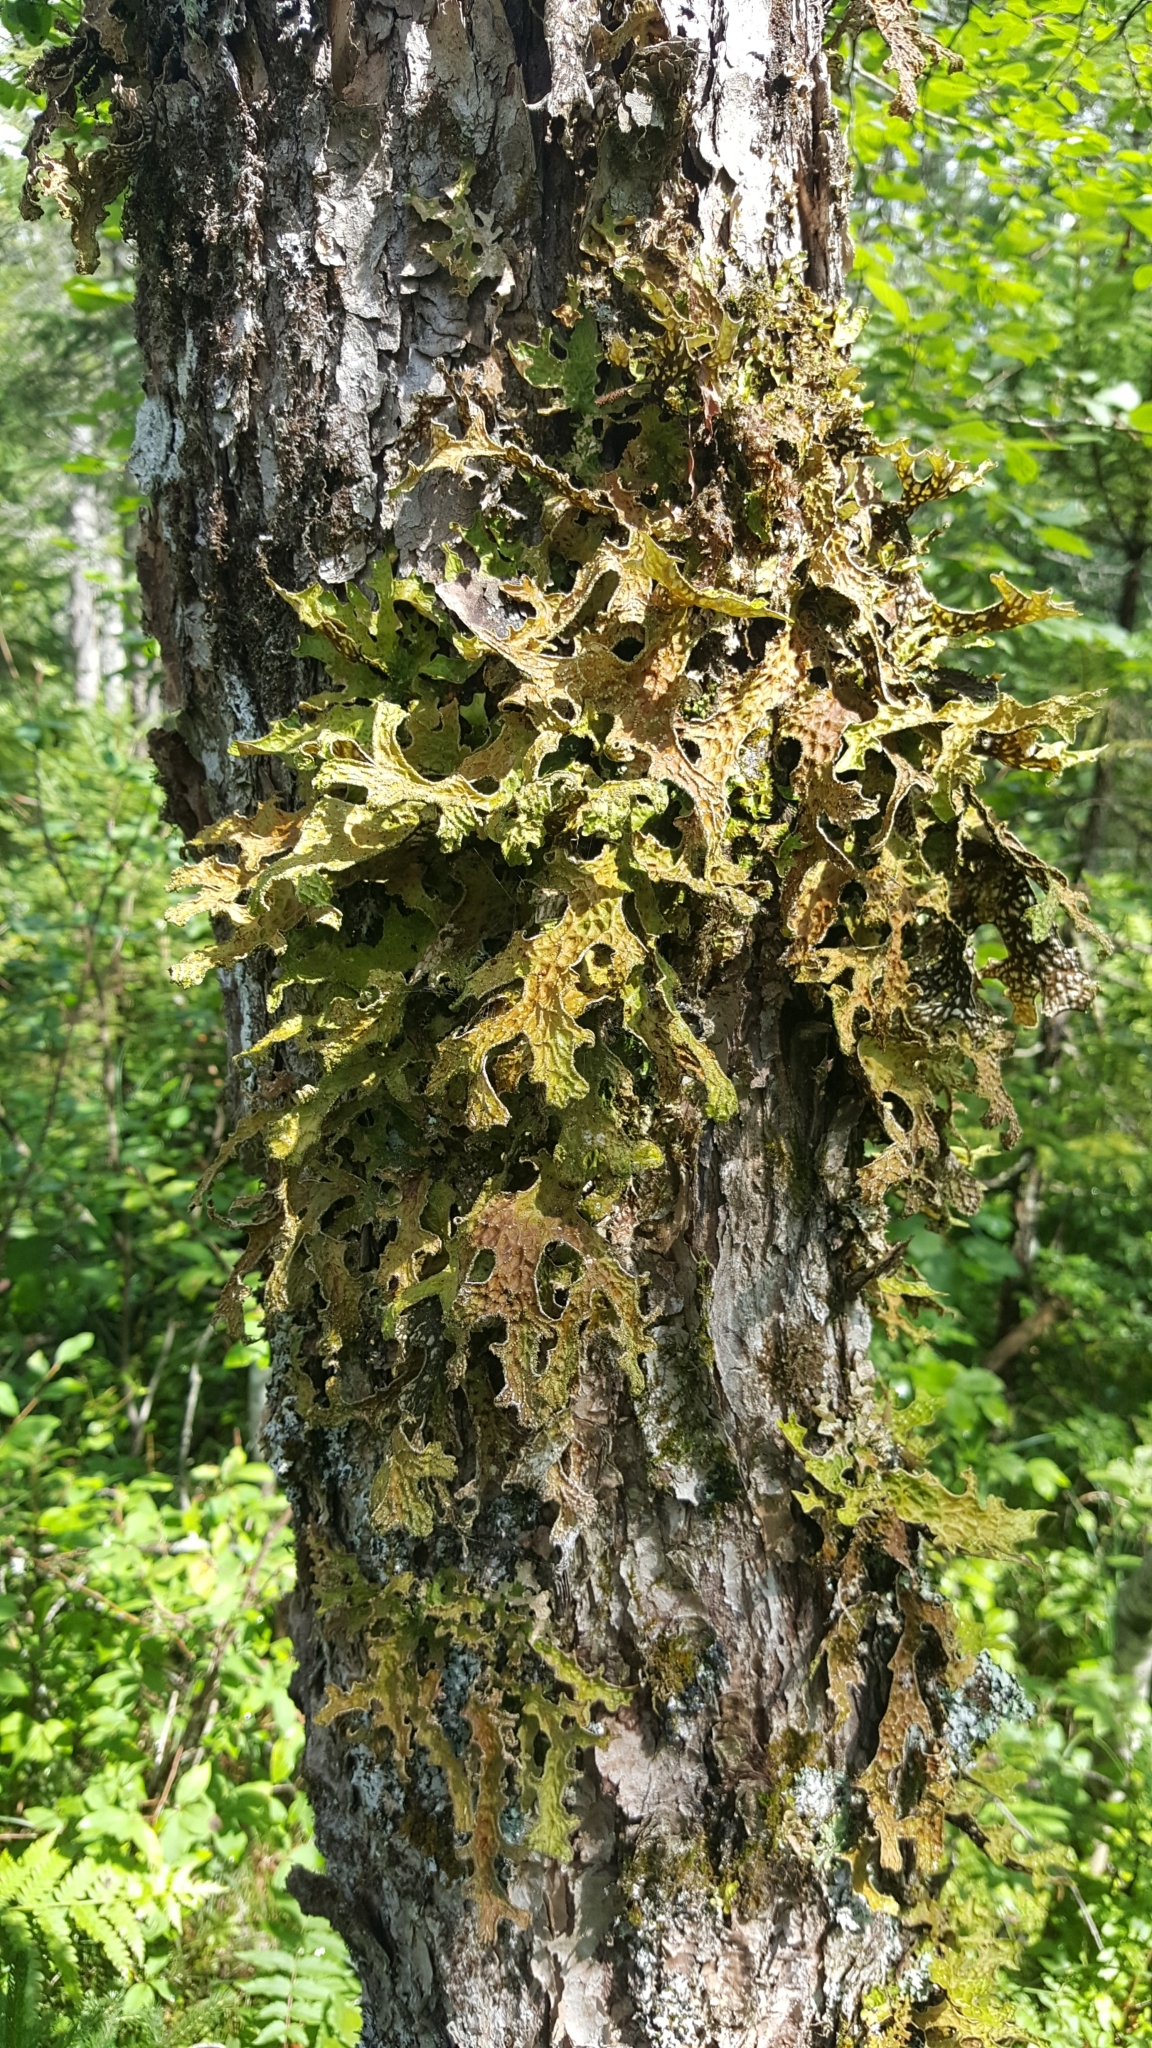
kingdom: Fungi
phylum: Ascomycota
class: Lecanoromycetes
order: Peltigerales
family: Lobariaceae
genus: Lobaria
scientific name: Lobaria pulmonaria
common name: Lungwort
